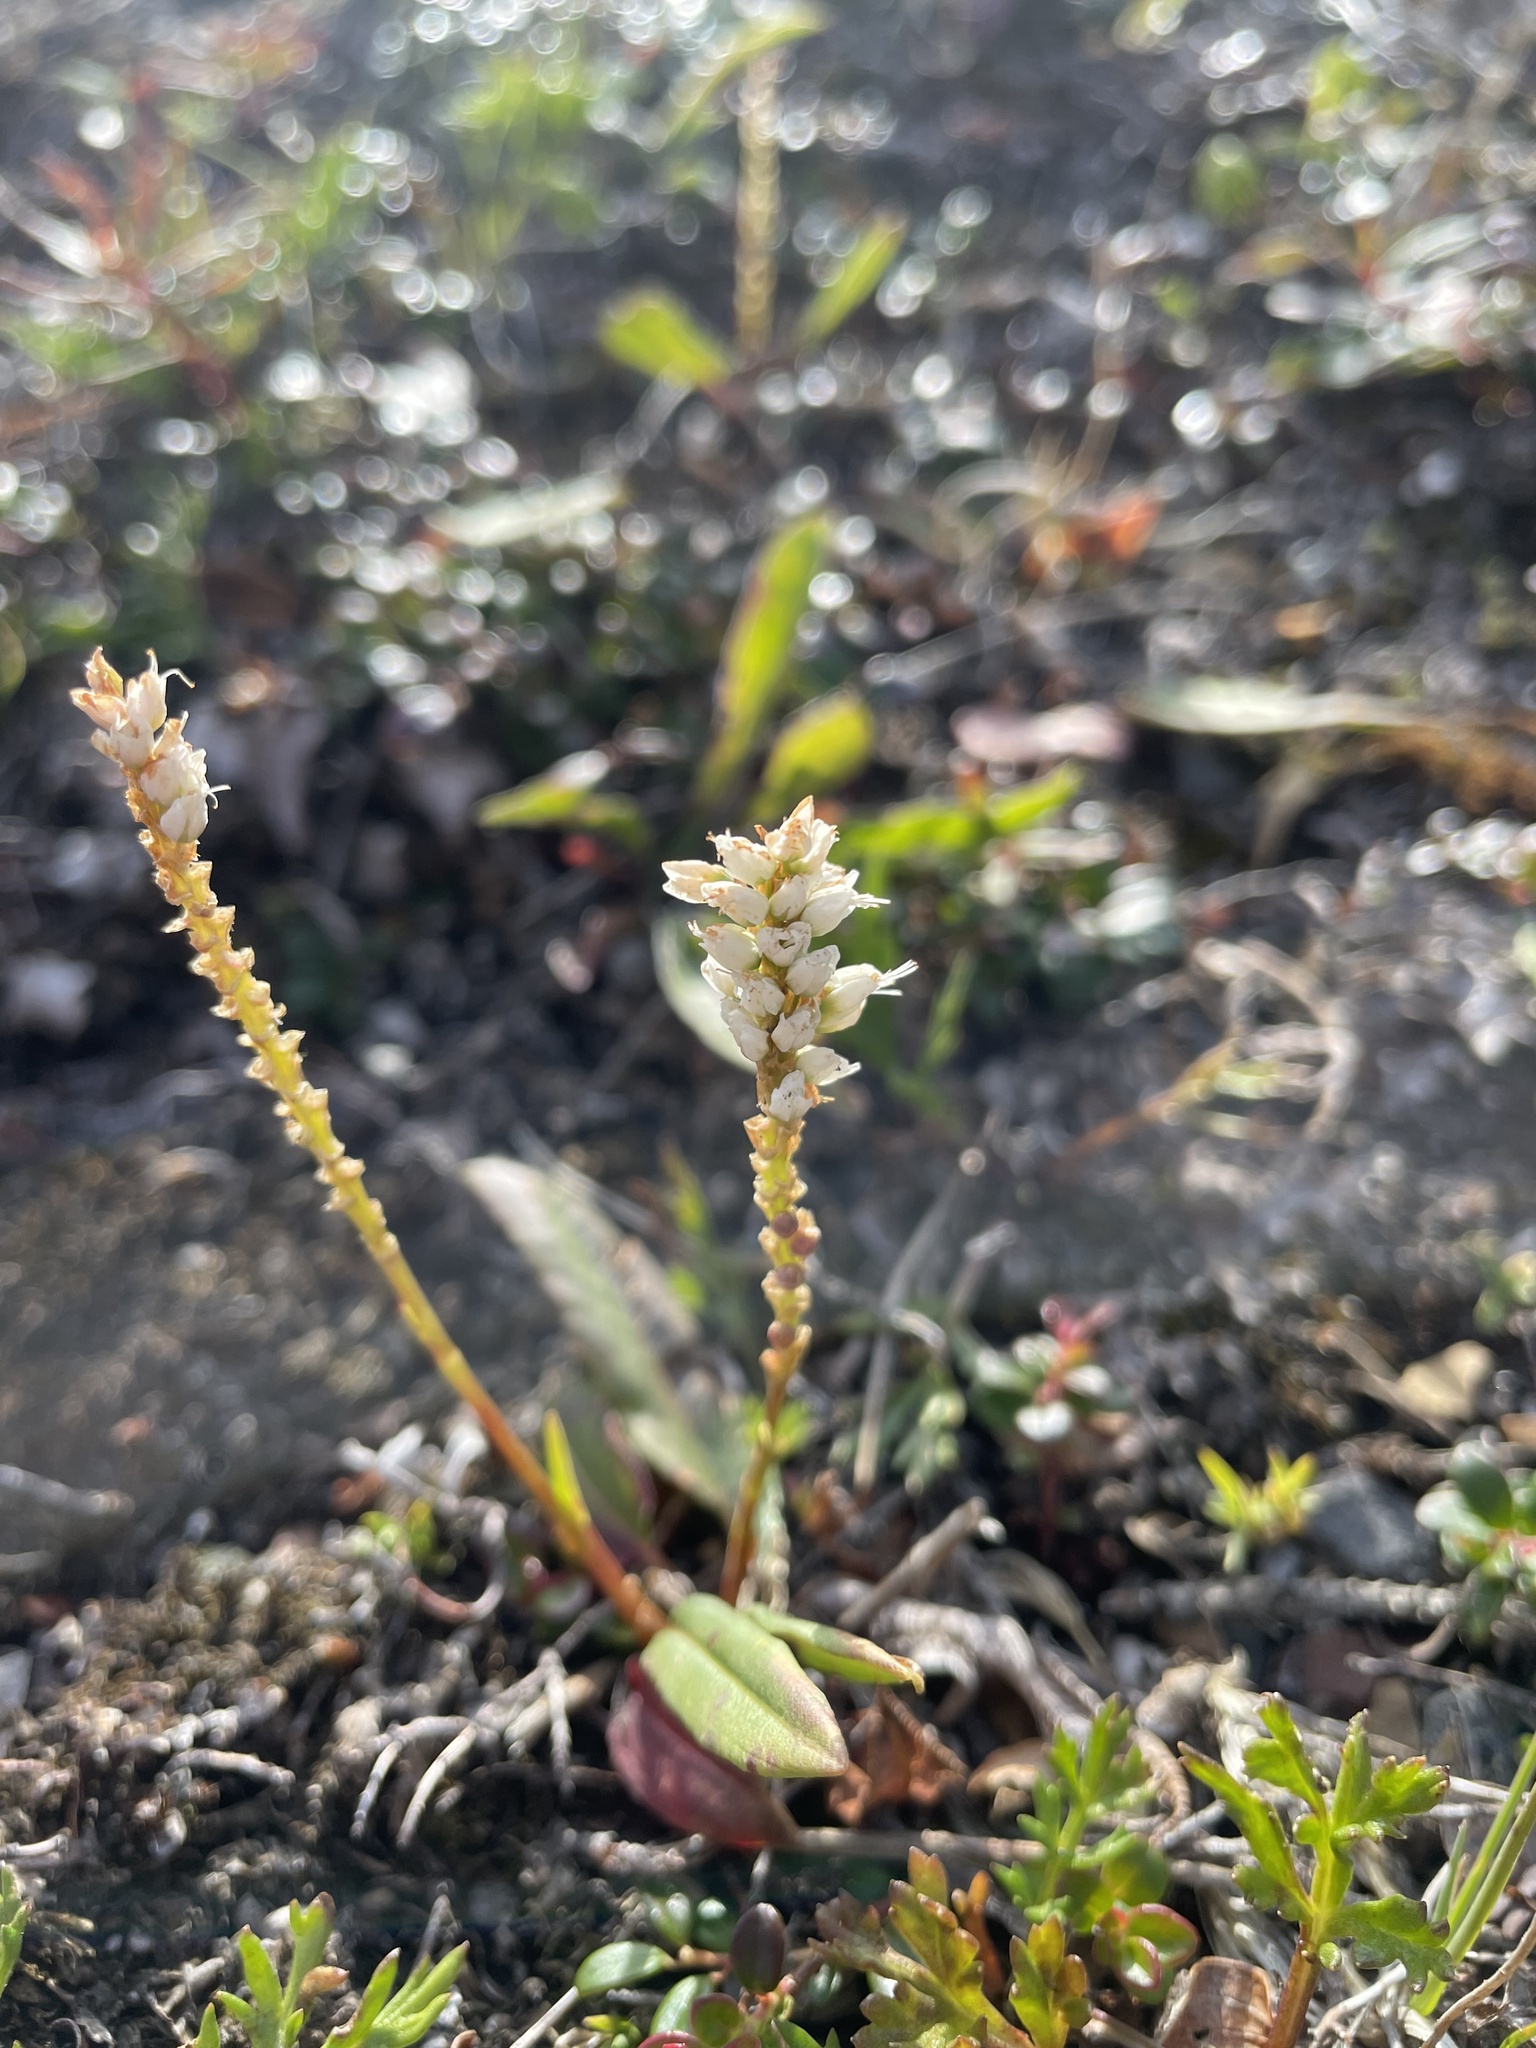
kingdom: Plantae
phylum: Tracheophyta
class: Magnoliopsida
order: Caryophyllales
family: Polygonaceae
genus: Bistorta
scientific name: Bistorta vivipara
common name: Alpine bistort
